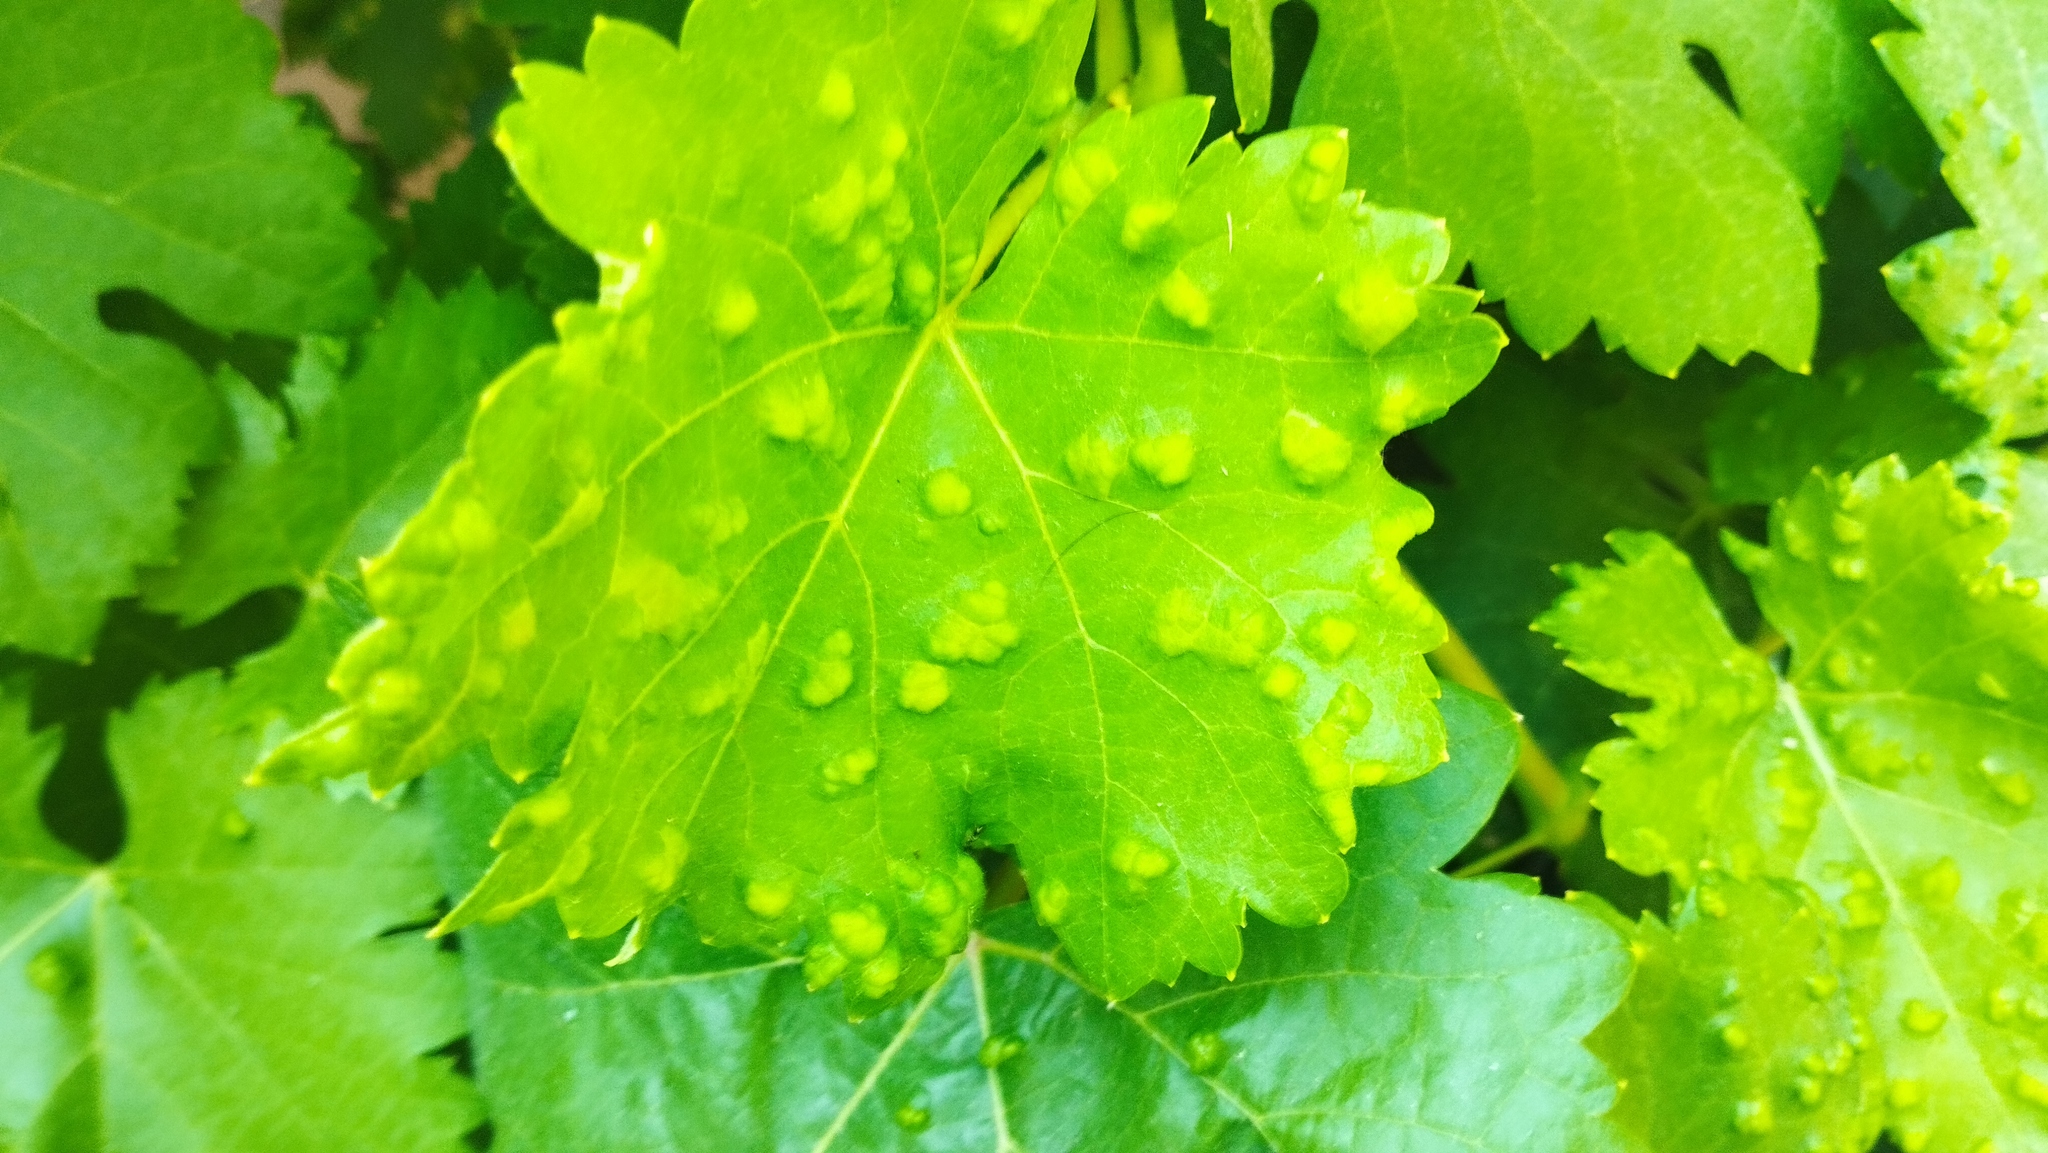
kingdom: Plantae
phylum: Tracheophyta
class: Magnoliopsida
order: Vitales
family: Vitaceae
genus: Vitis
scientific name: Vitis vinifera
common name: Grape-vine
